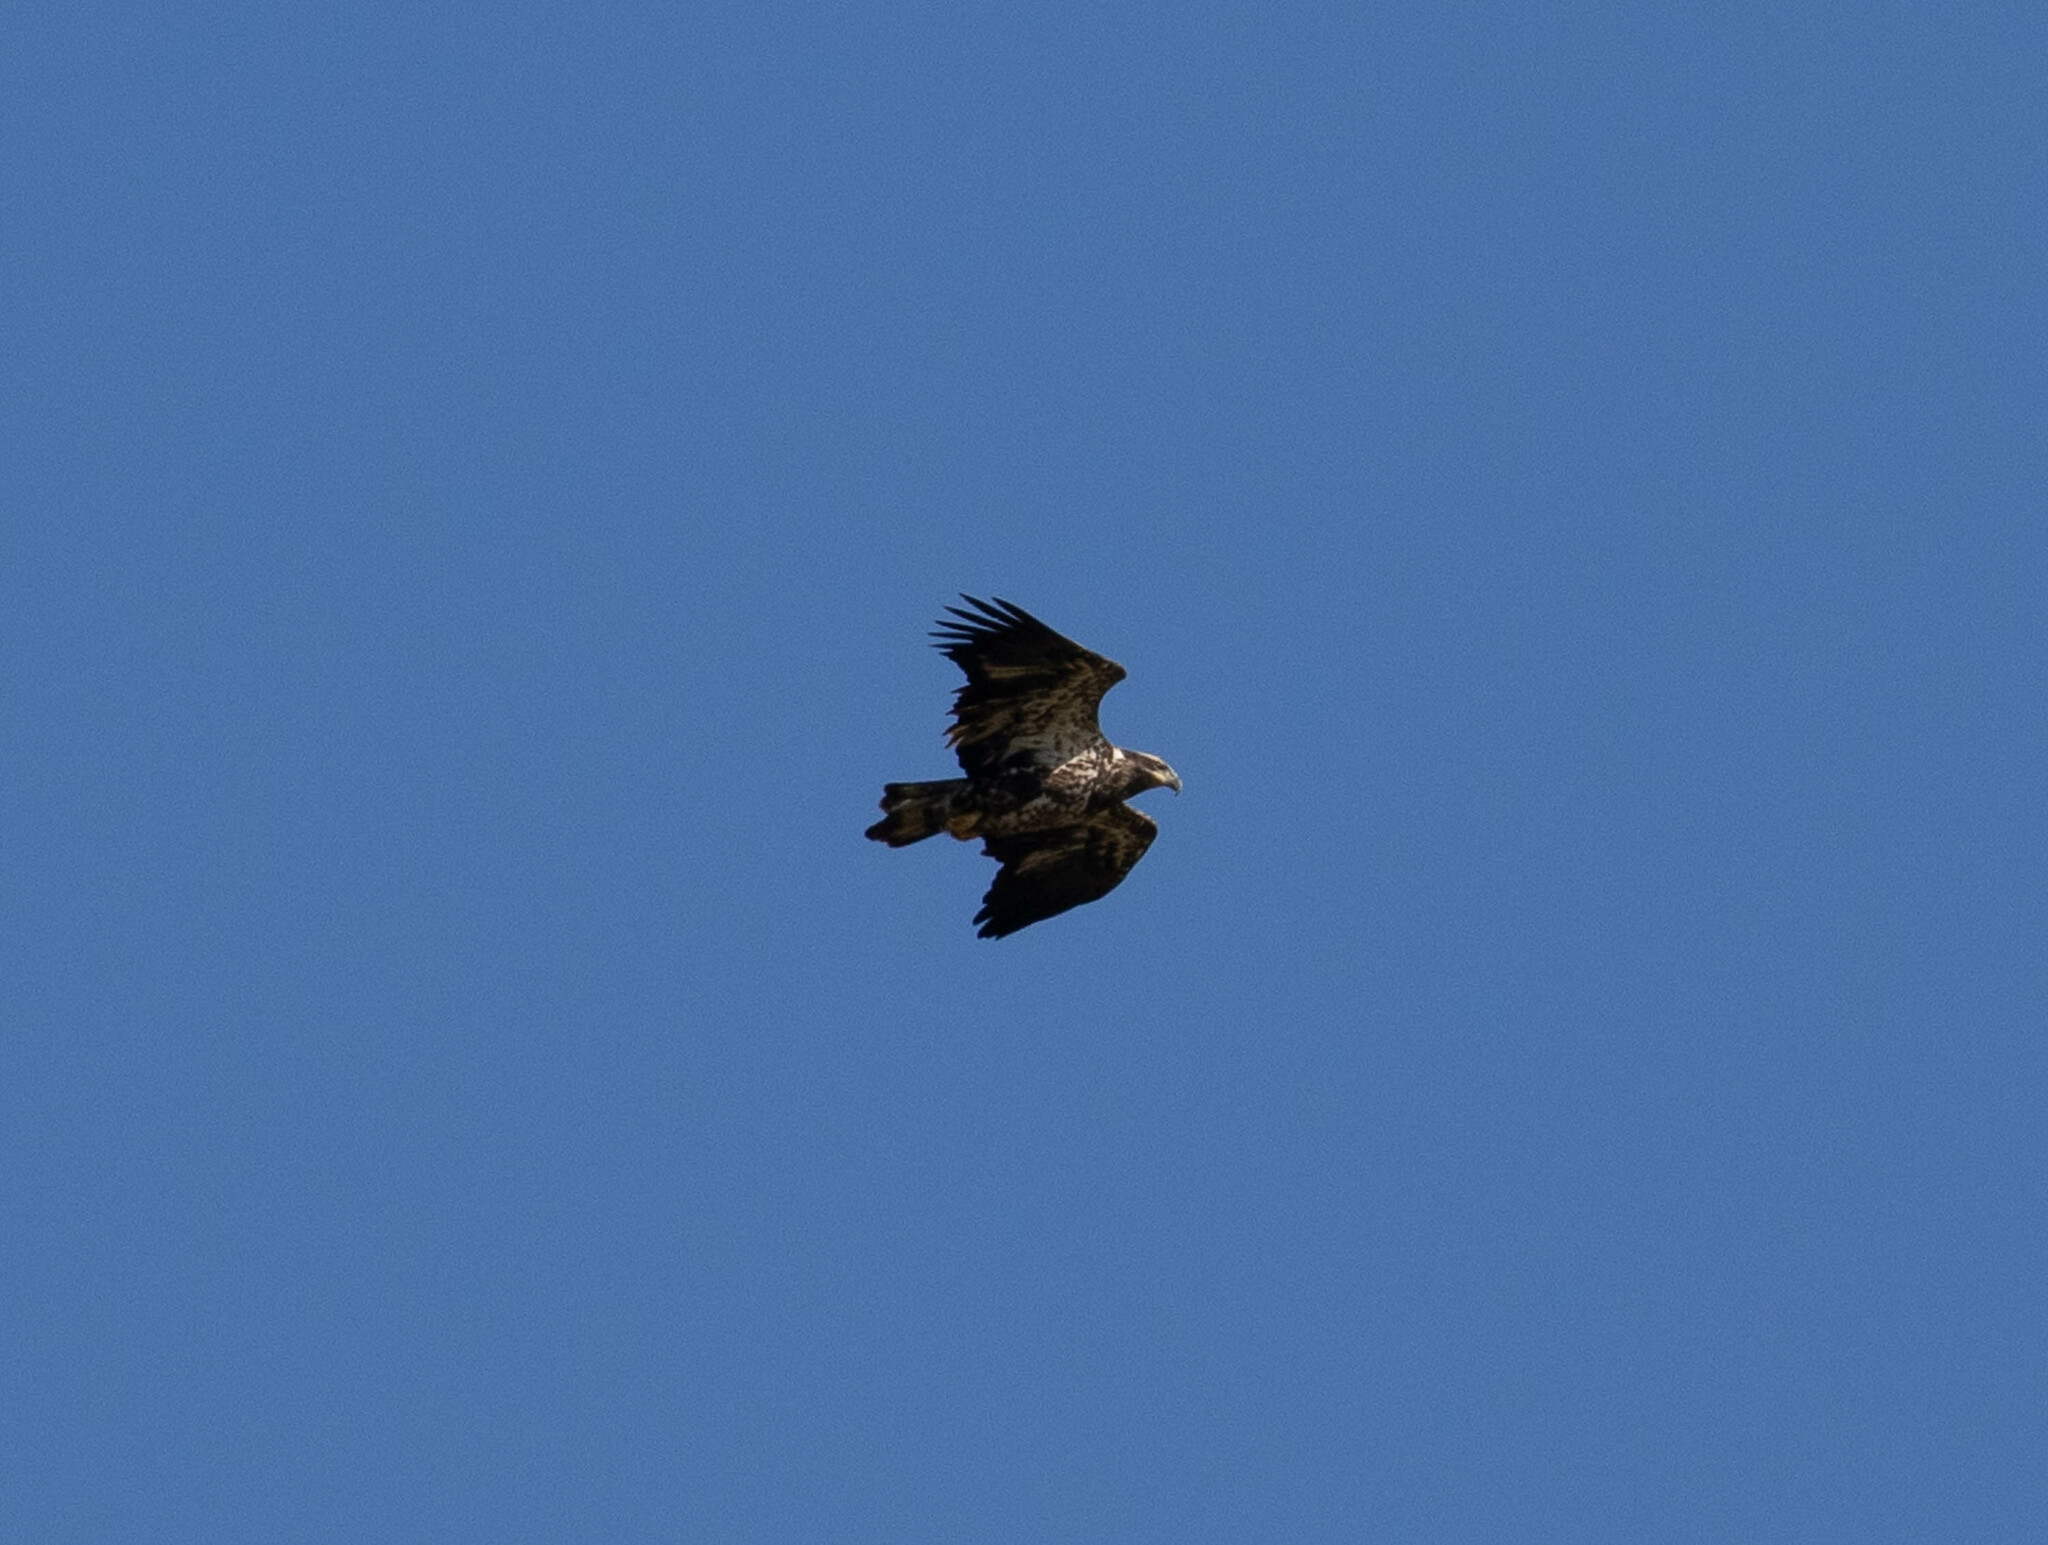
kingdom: Animalia
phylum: Chordata
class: Aves
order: Accipitriformes
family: Accipitridae
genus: Haliaeetus
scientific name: Haliaeetus leucocephalus
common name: Bald eagle
